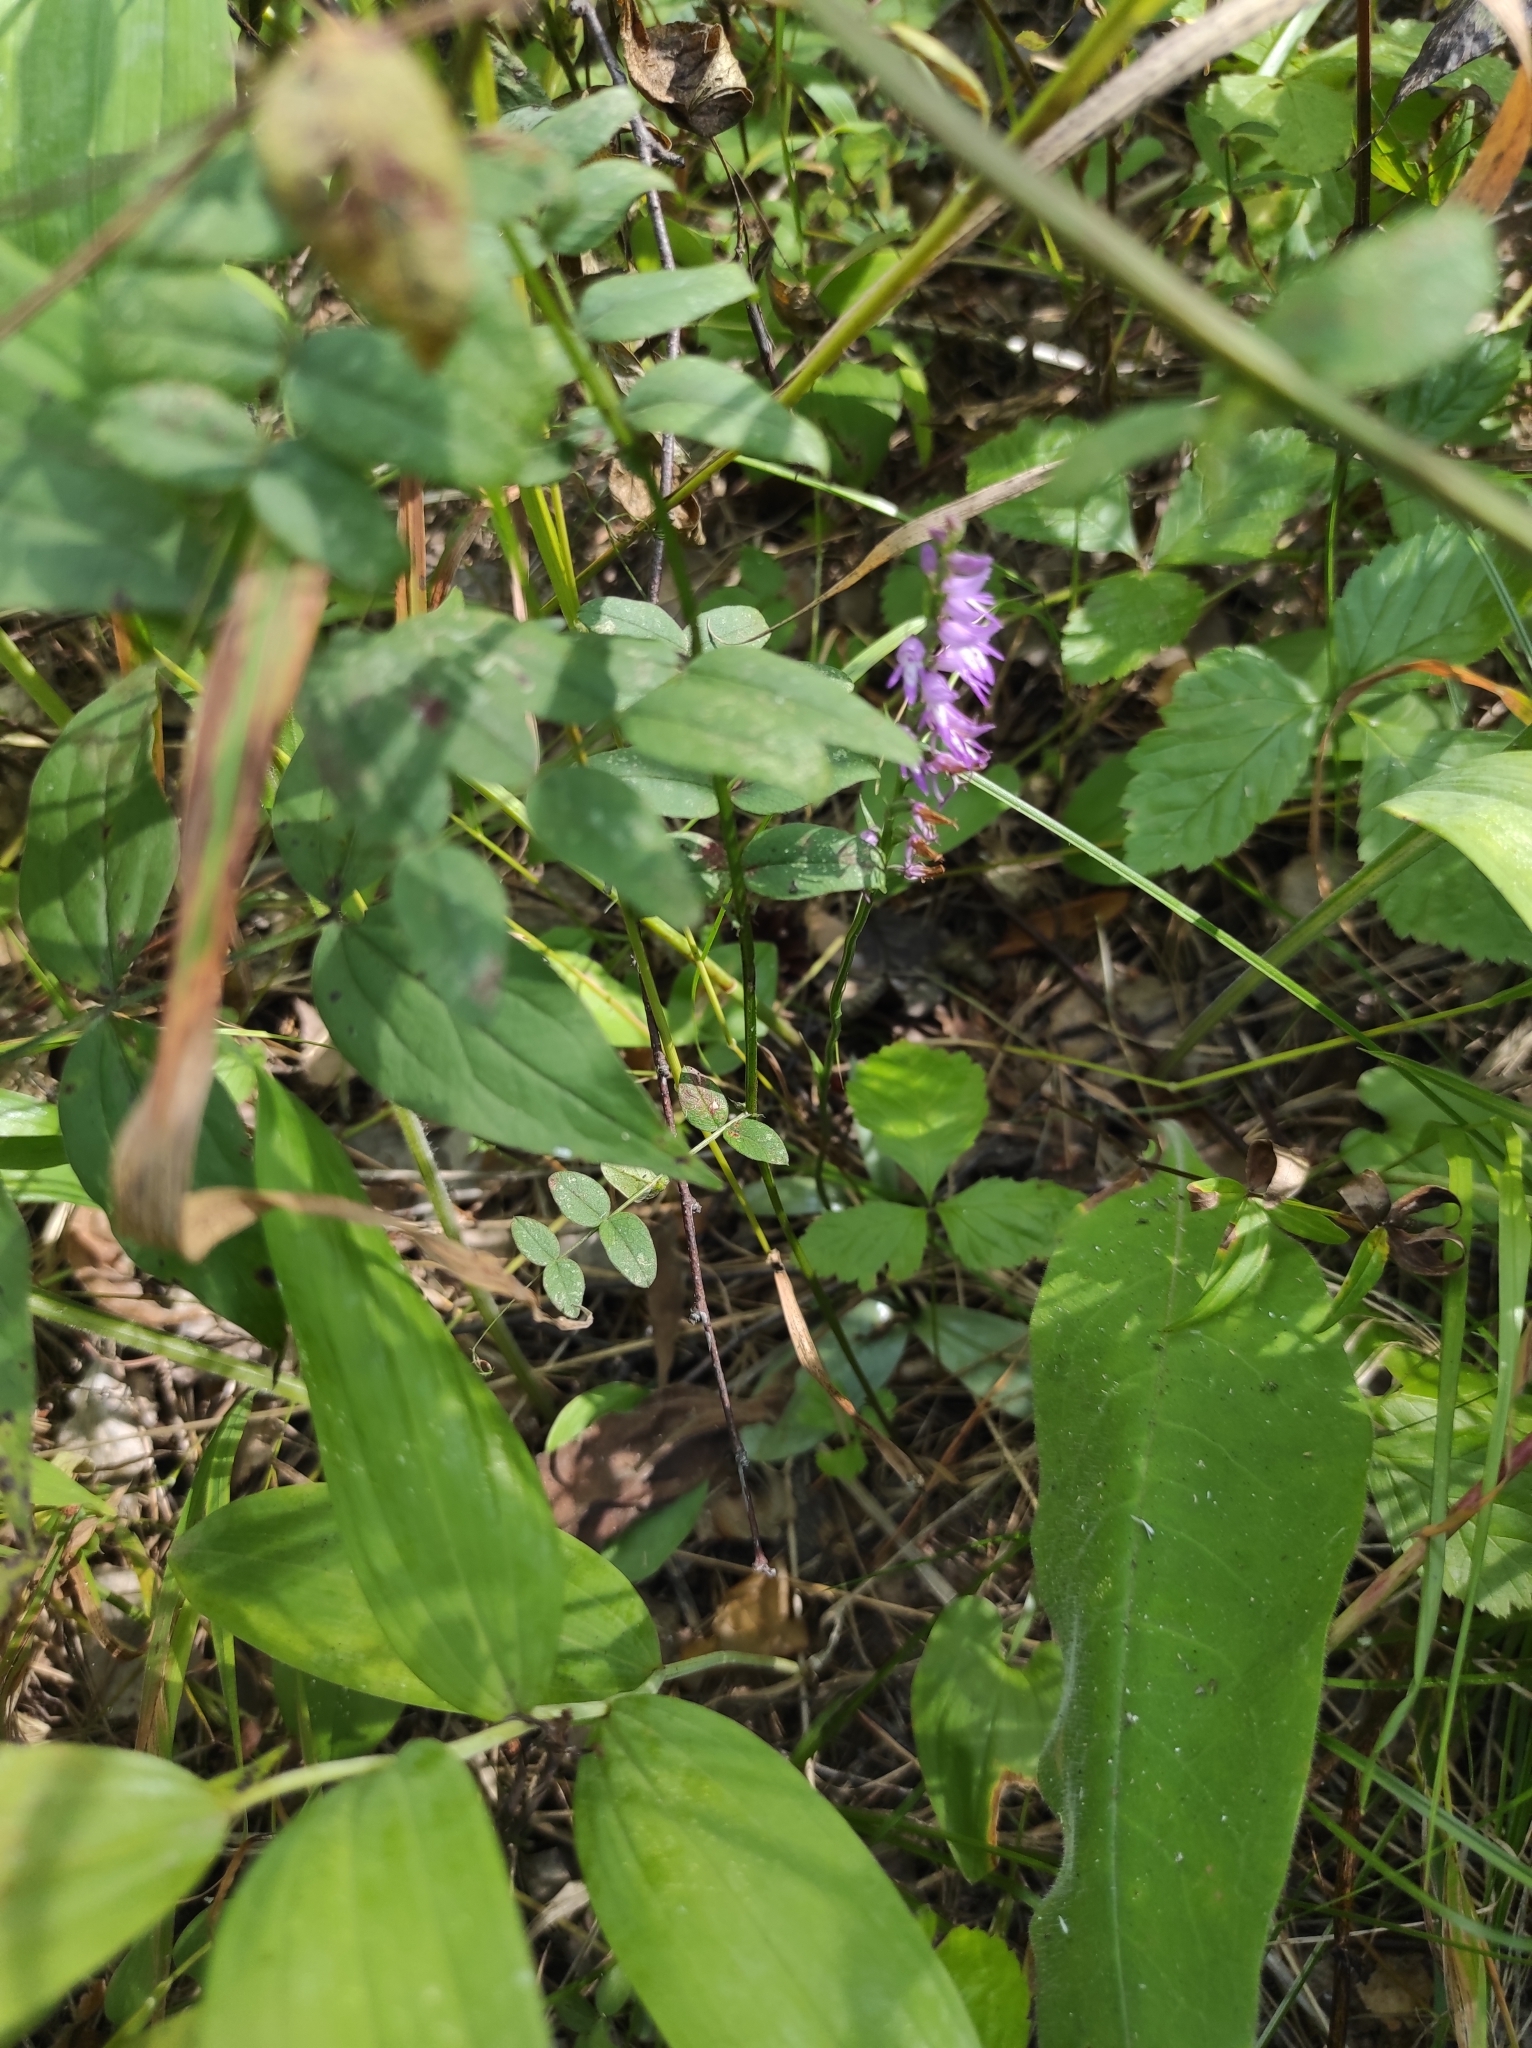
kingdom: Plantae
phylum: Tracheophyta
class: Liliopsida
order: Asparagales
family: Orchidaceae
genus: Hemipilia
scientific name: Hemipilia cucullata
